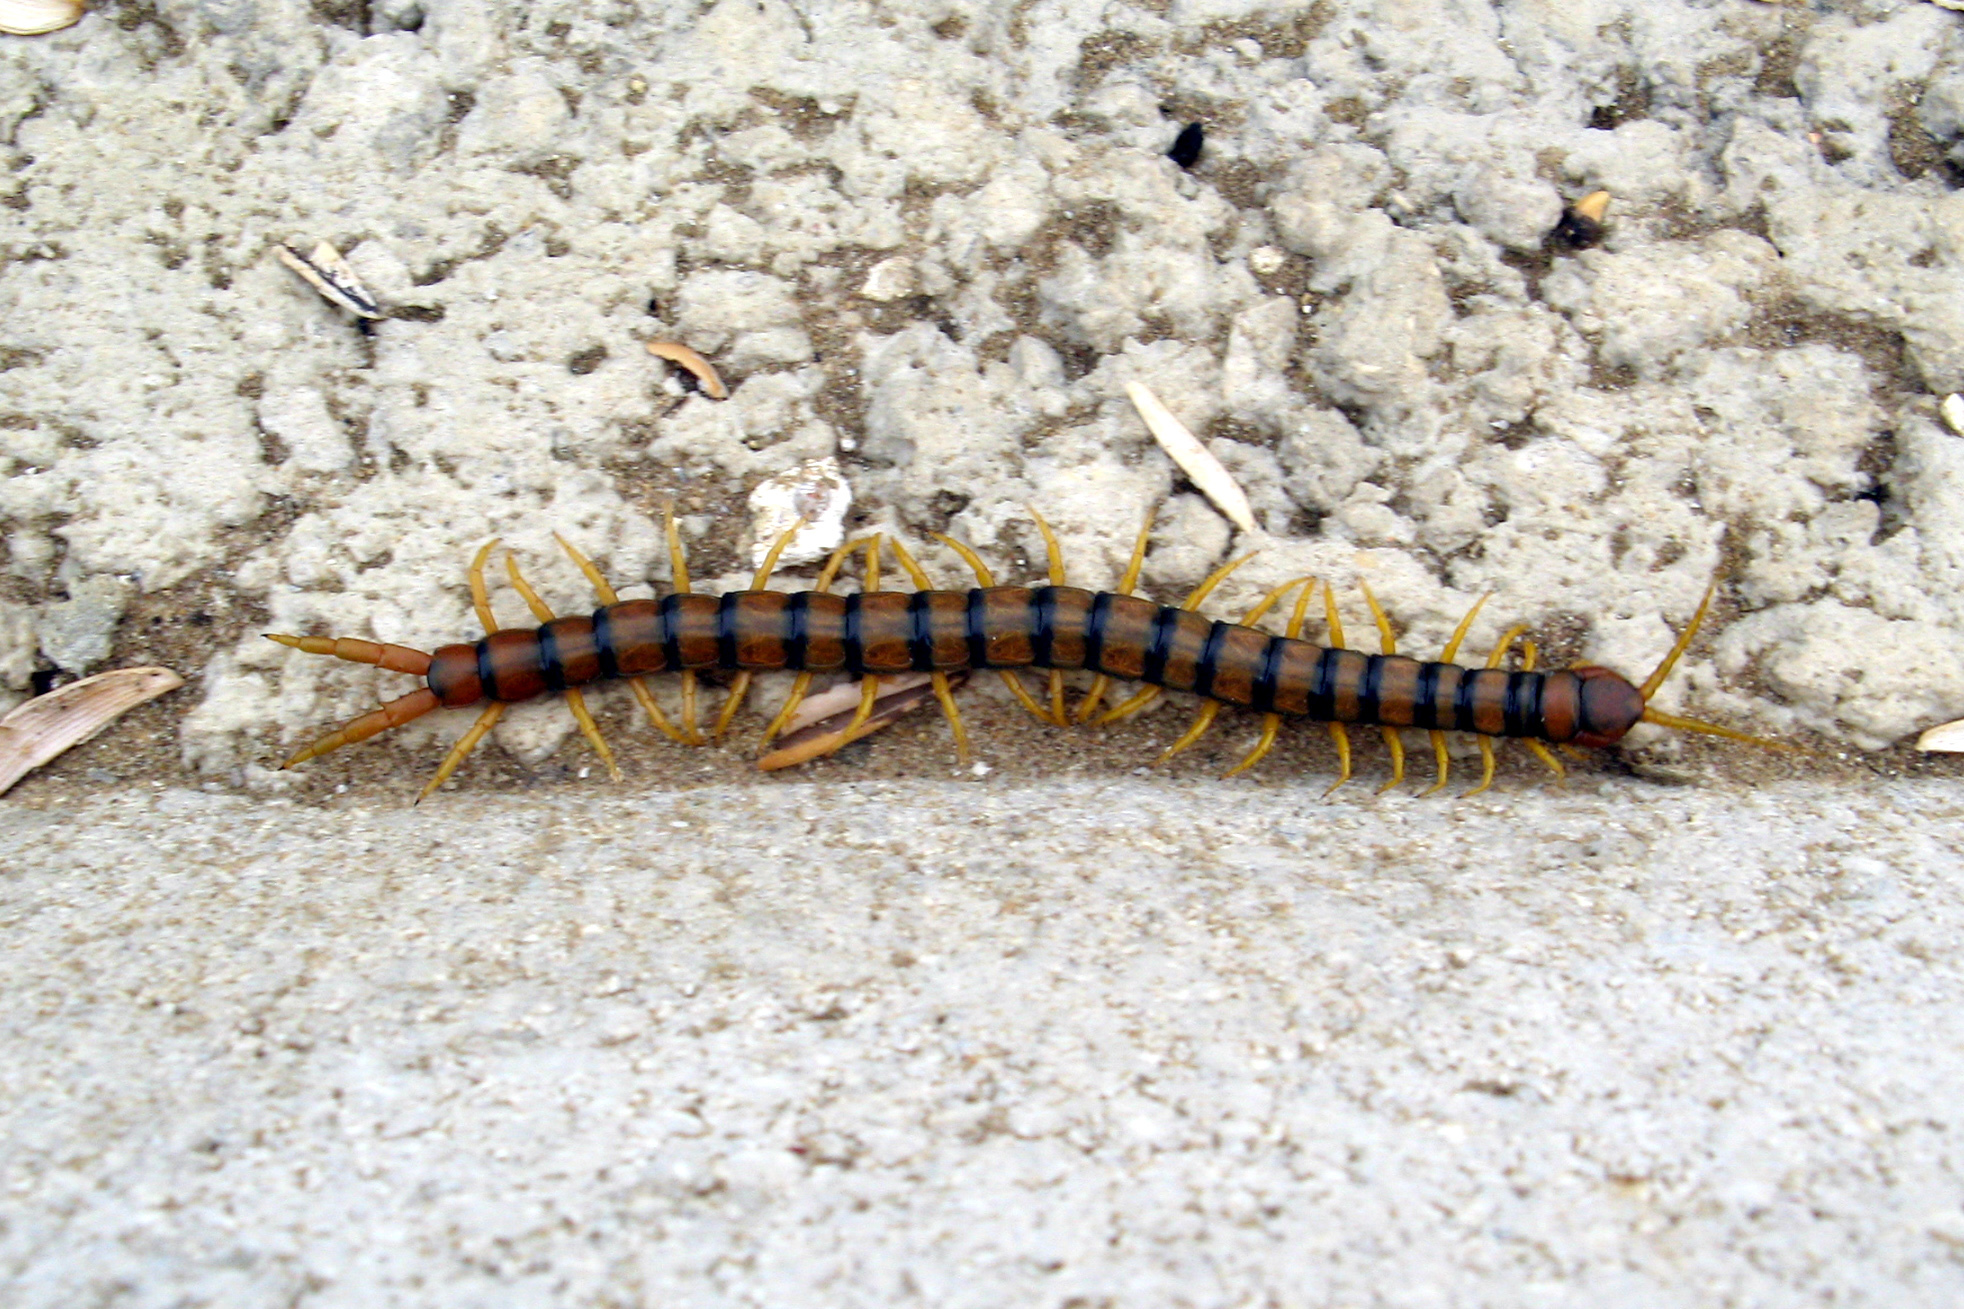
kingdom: Animalia
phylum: Arthropoda
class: Chilopoda
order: Scolopendromorpha
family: Scolopendridae
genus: Scolopendra
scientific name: Scolopendra cingulata
